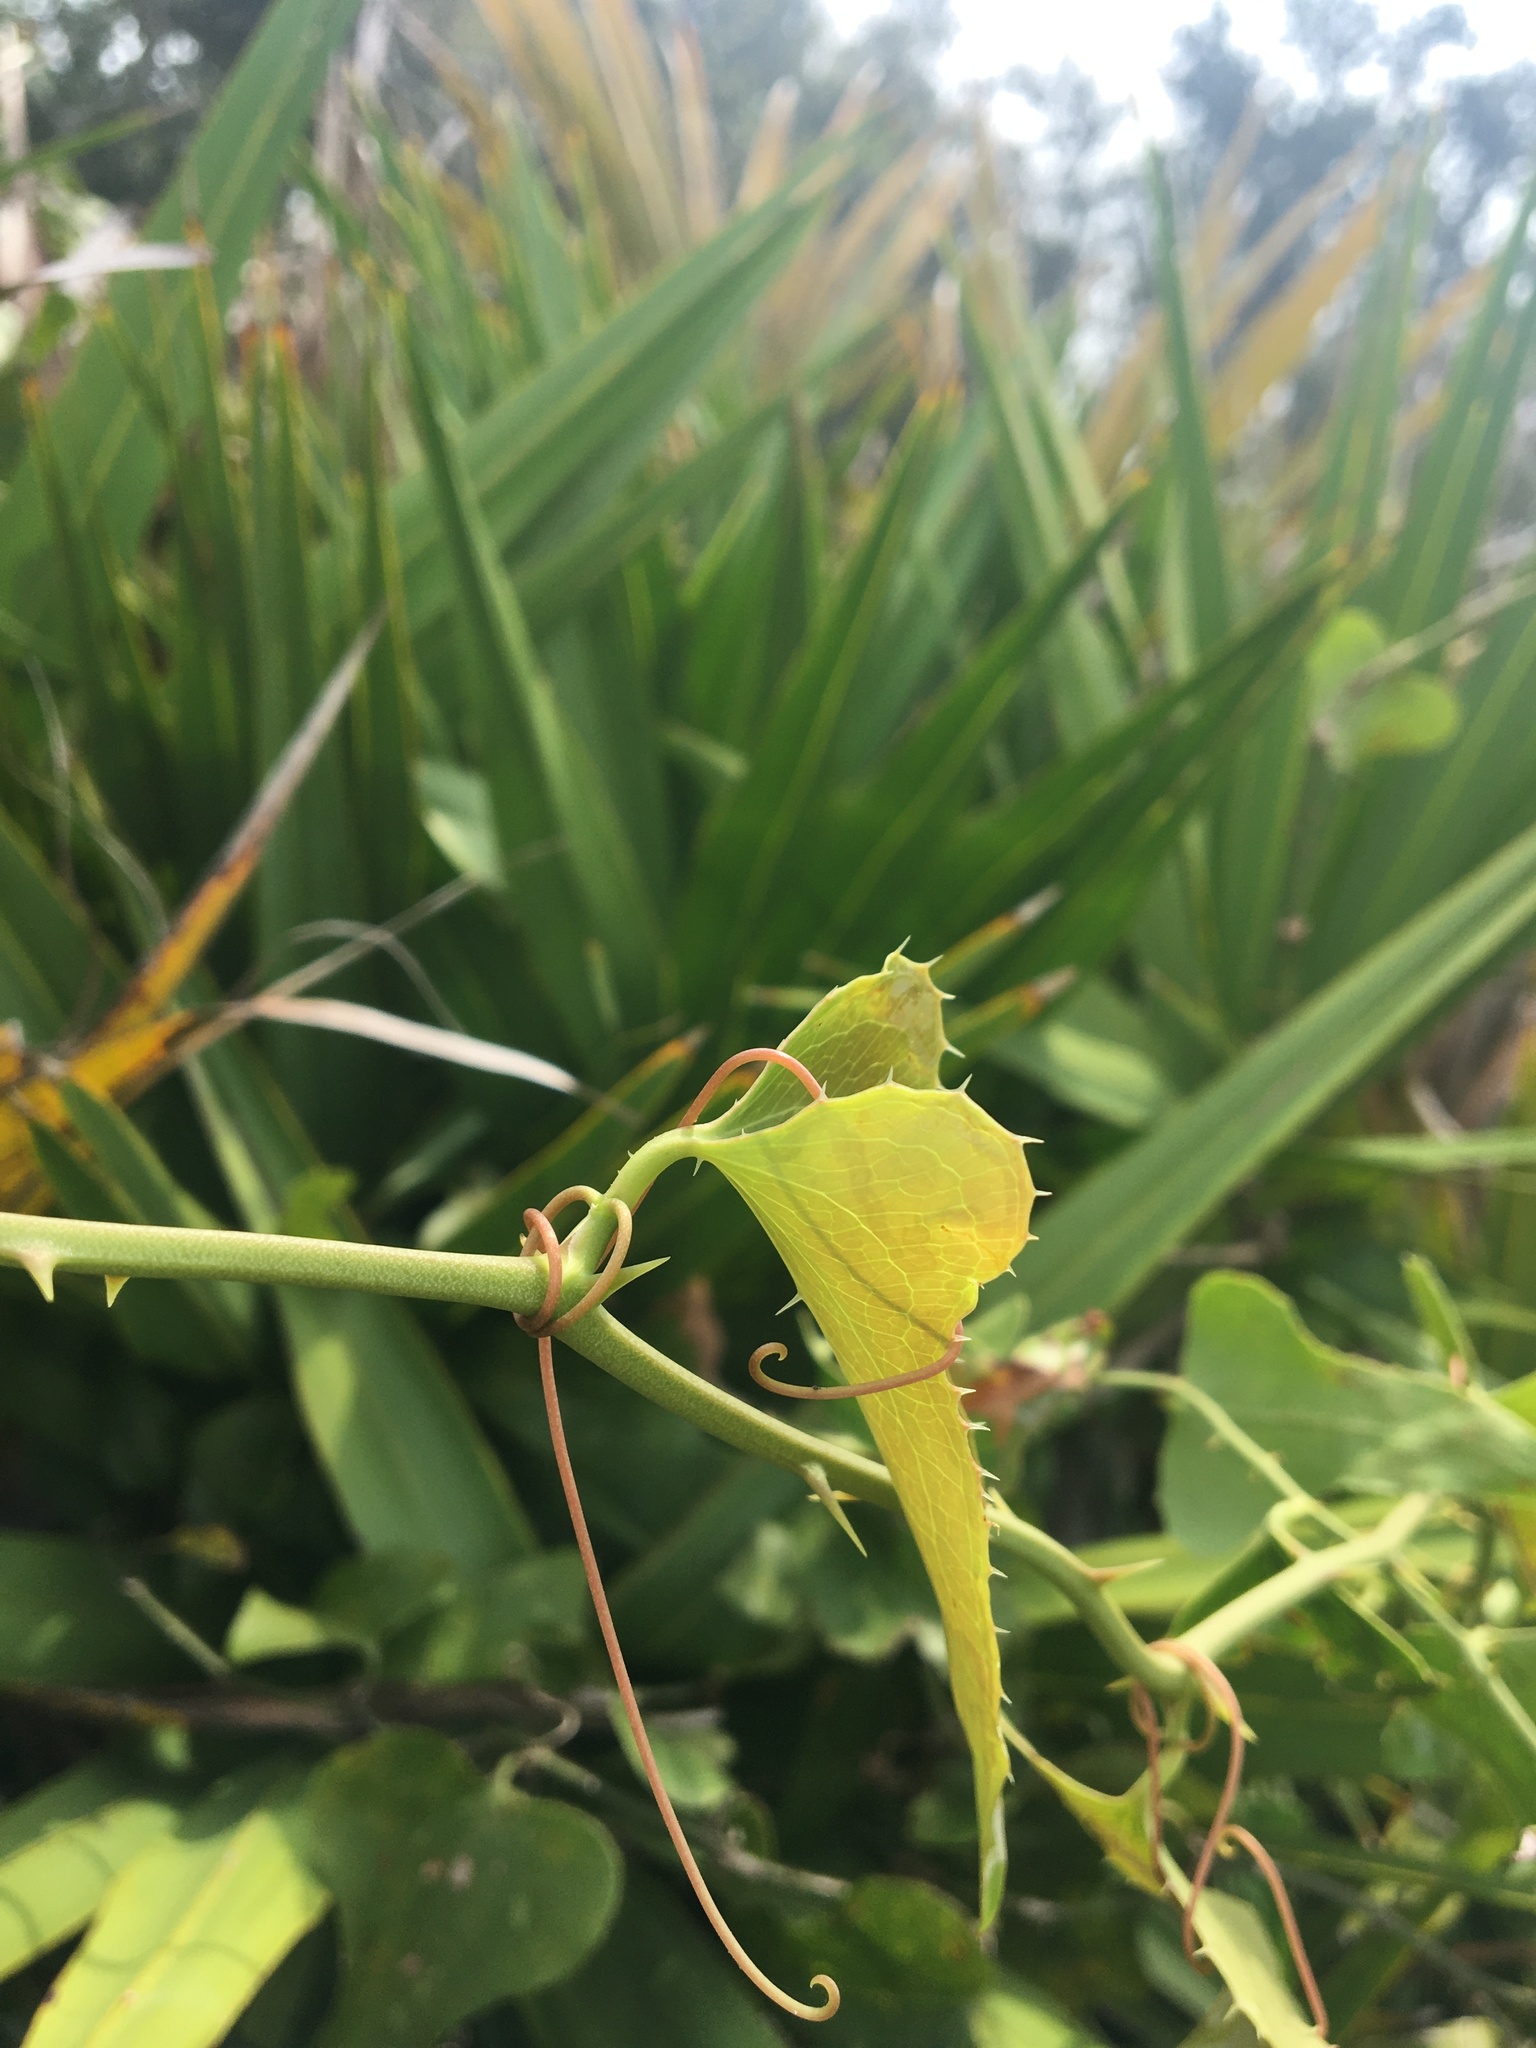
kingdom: Plantae
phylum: Tracheophyta
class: Liliopsida
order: Liliales
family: Smilacaceae
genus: Smilax
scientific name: Smilax bona-nox
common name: Catbrier
